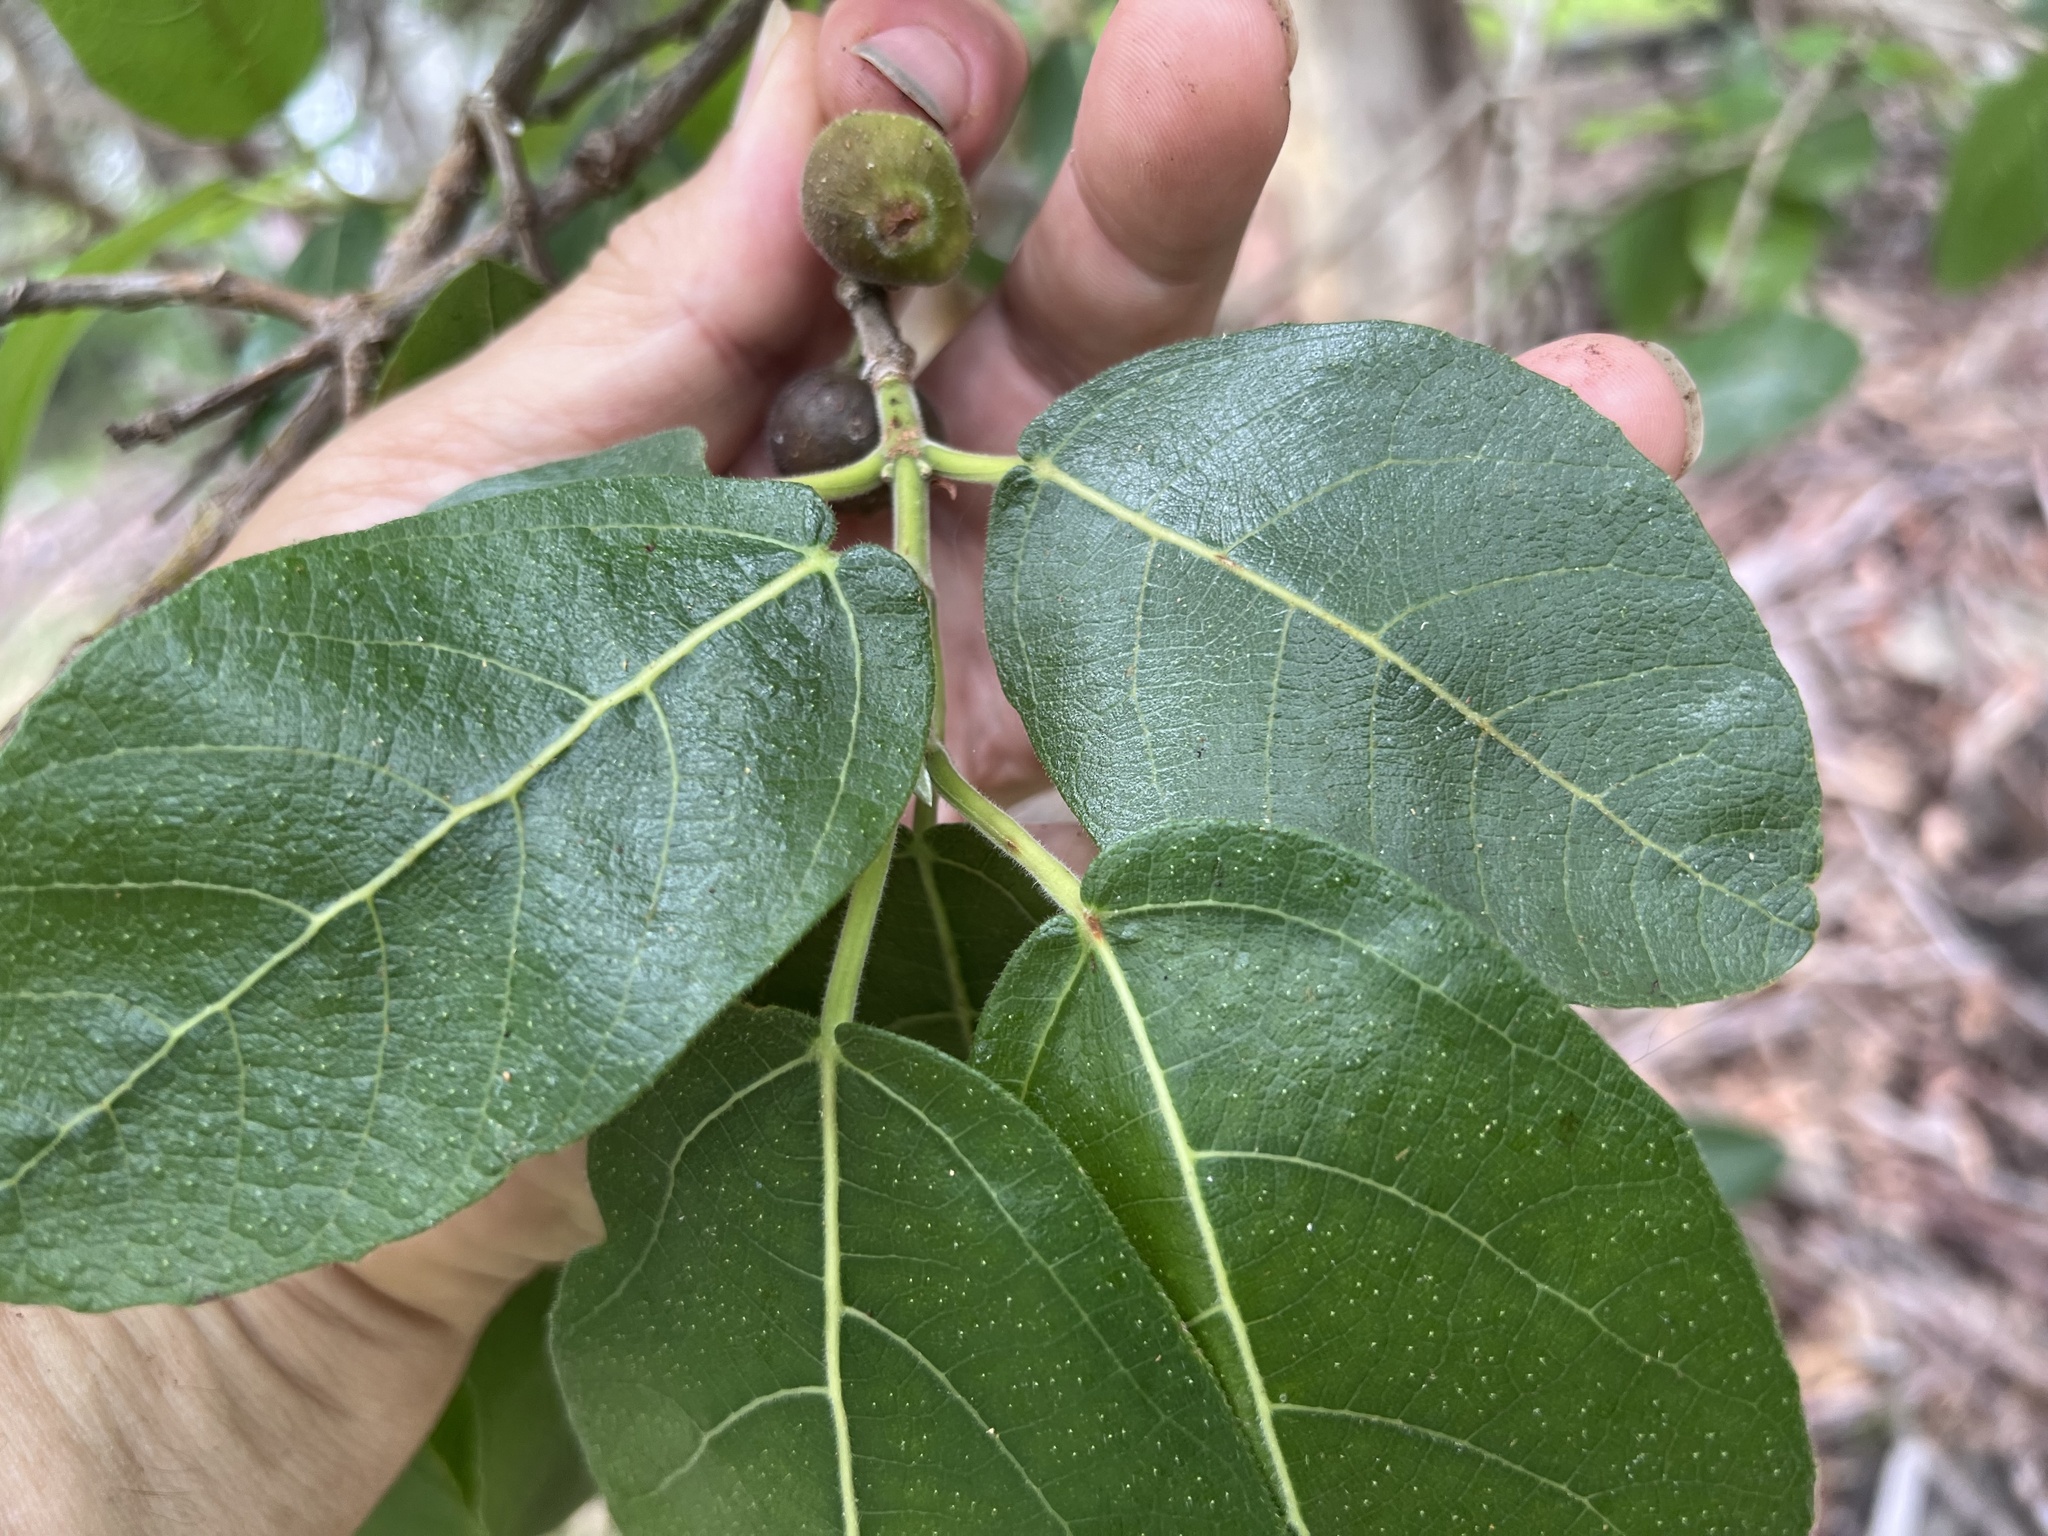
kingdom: Plantae
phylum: Tracheophyta
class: Magnoliopsida
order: Rosales
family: Moraceae
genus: Ficus
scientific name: Ficus opposita
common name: Figwood
